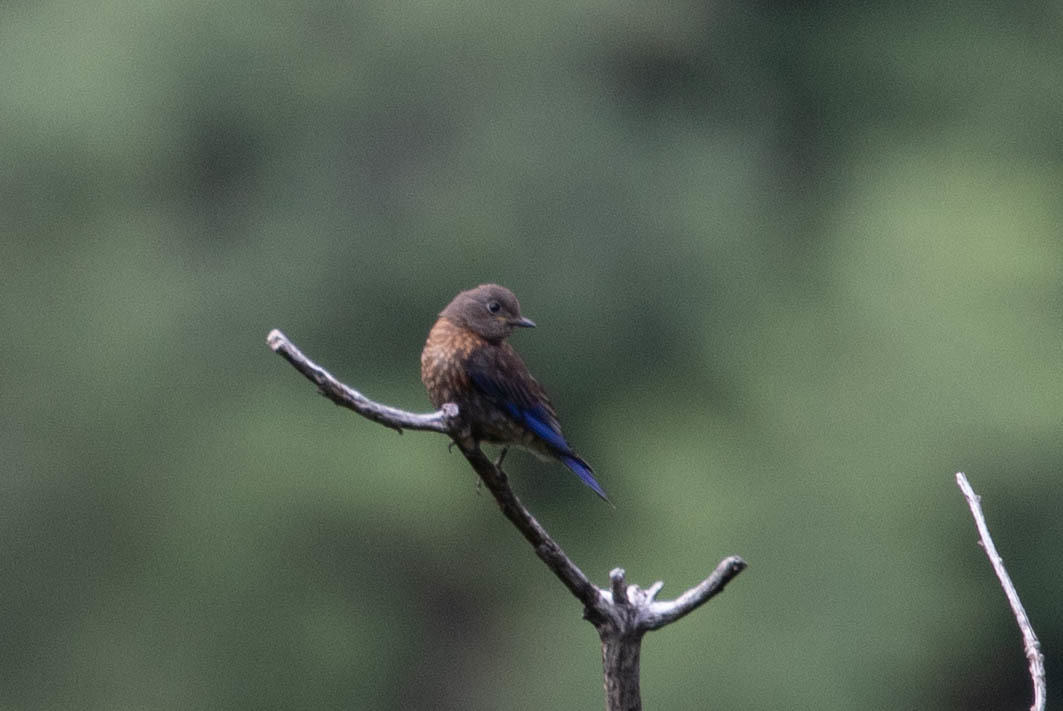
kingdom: Animalia
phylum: Chordata
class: Aves
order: Passeriformes
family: Turdidae
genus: Sialia
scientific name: Sialia mexicana
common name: Western bluebird
